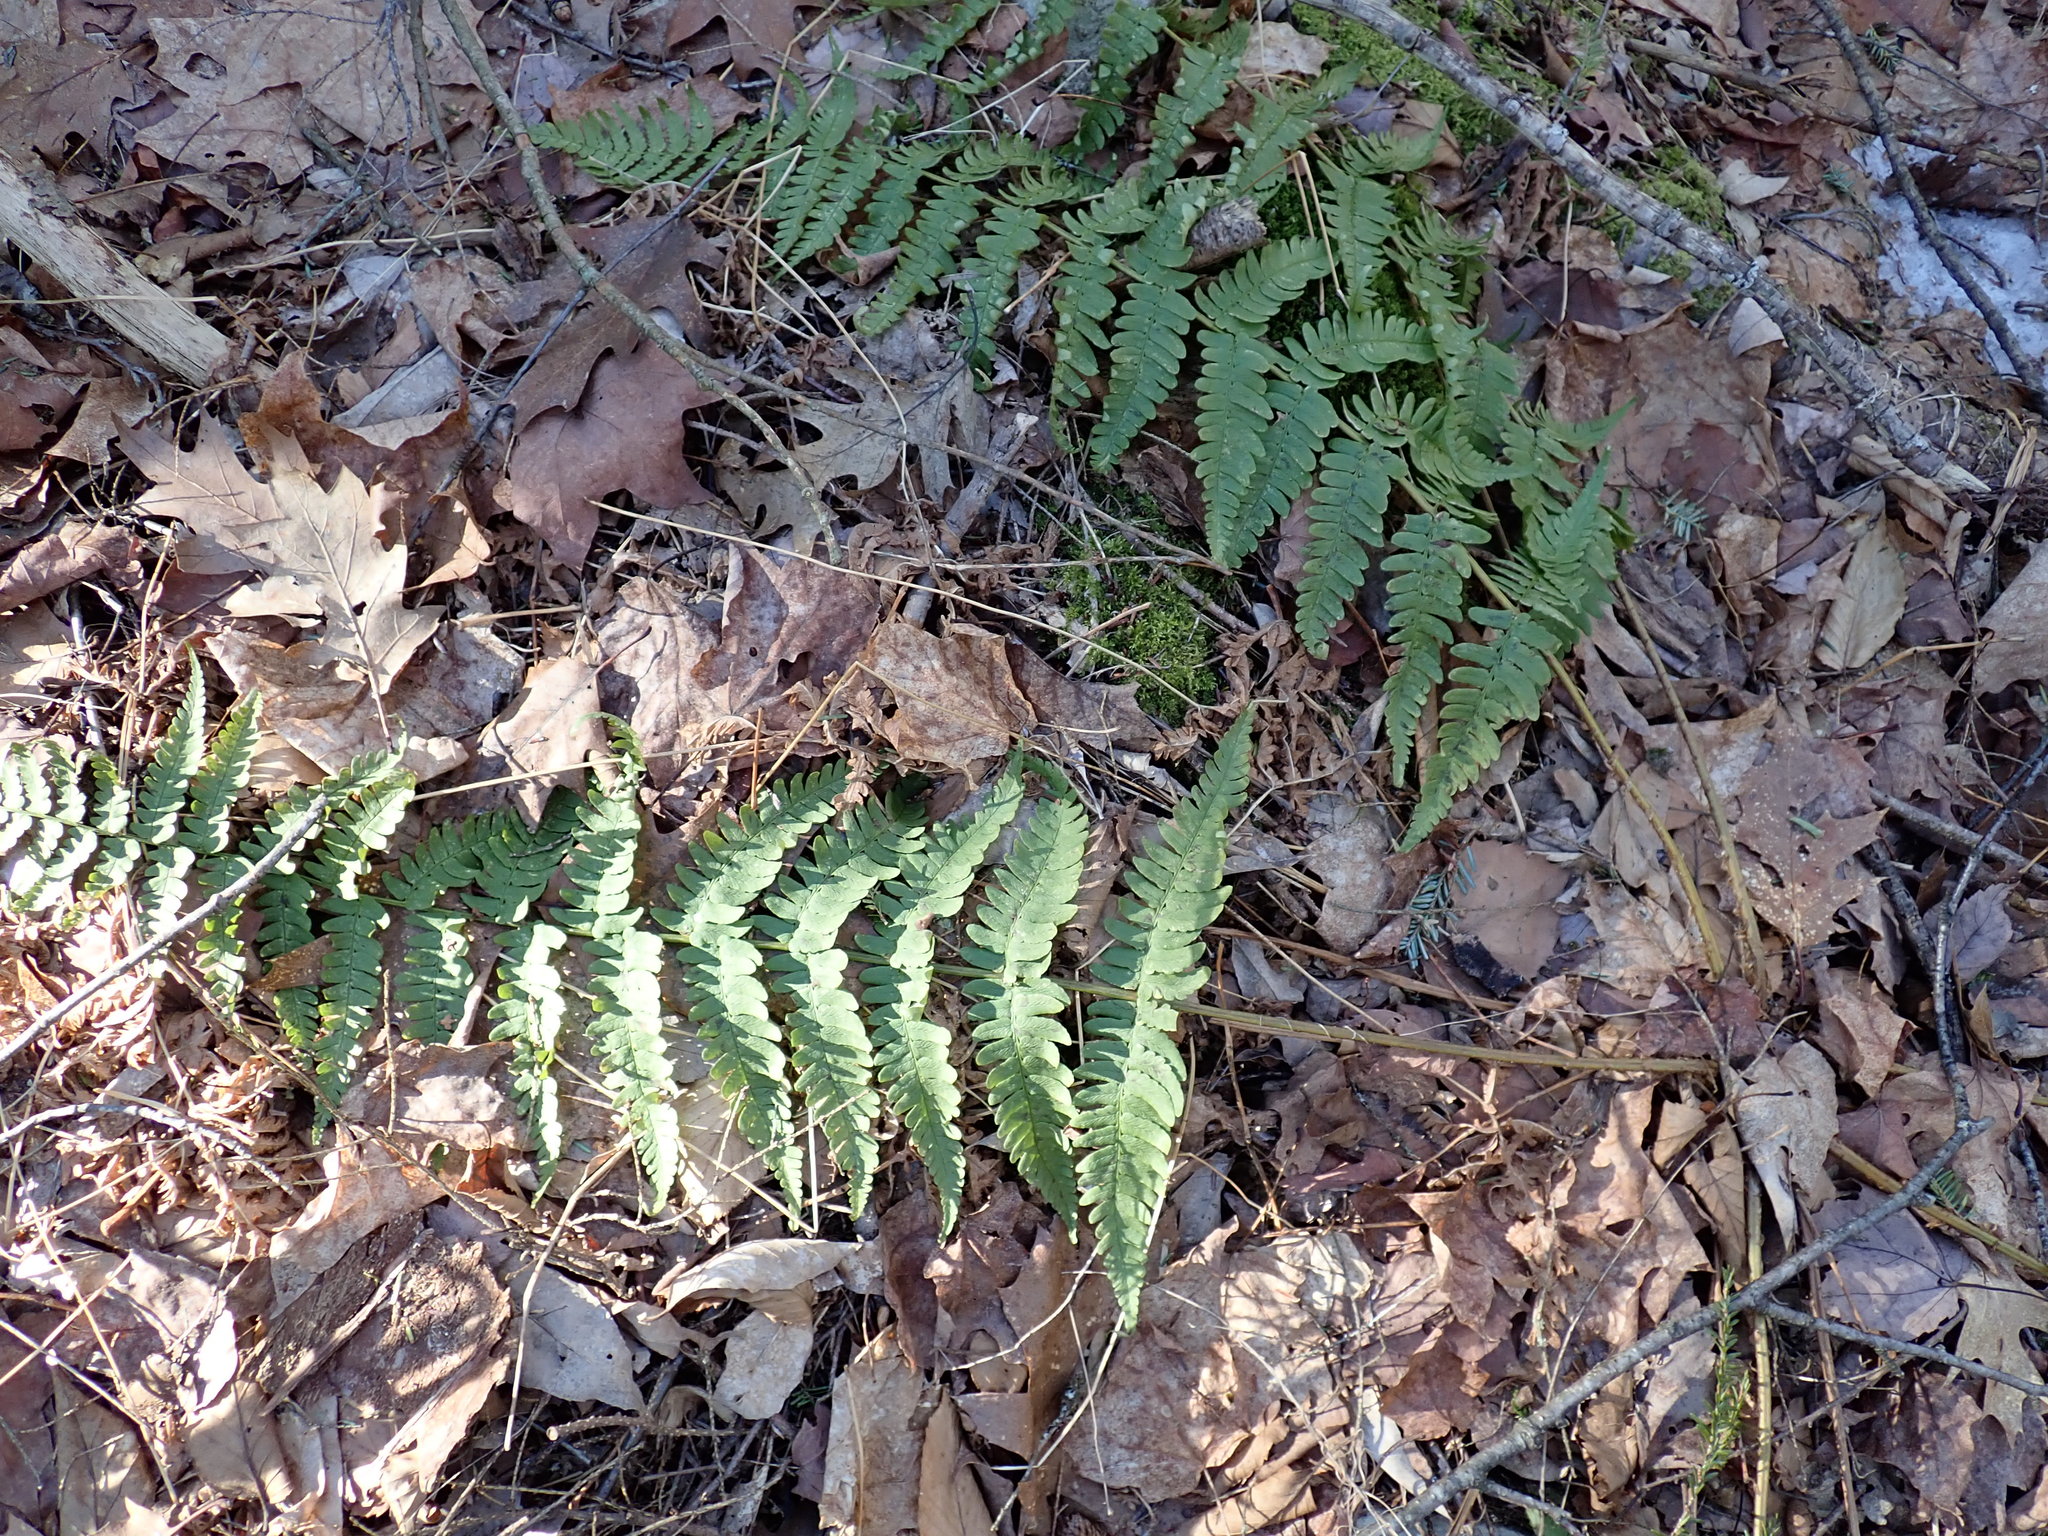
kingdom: Plantae
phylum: Tracheophyta
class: Polypodiopsida
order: Polypodiales
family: Dryopteridaceae
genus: Dryopteris
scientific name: Dryopteris marginalis
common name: Marginal wood fern
